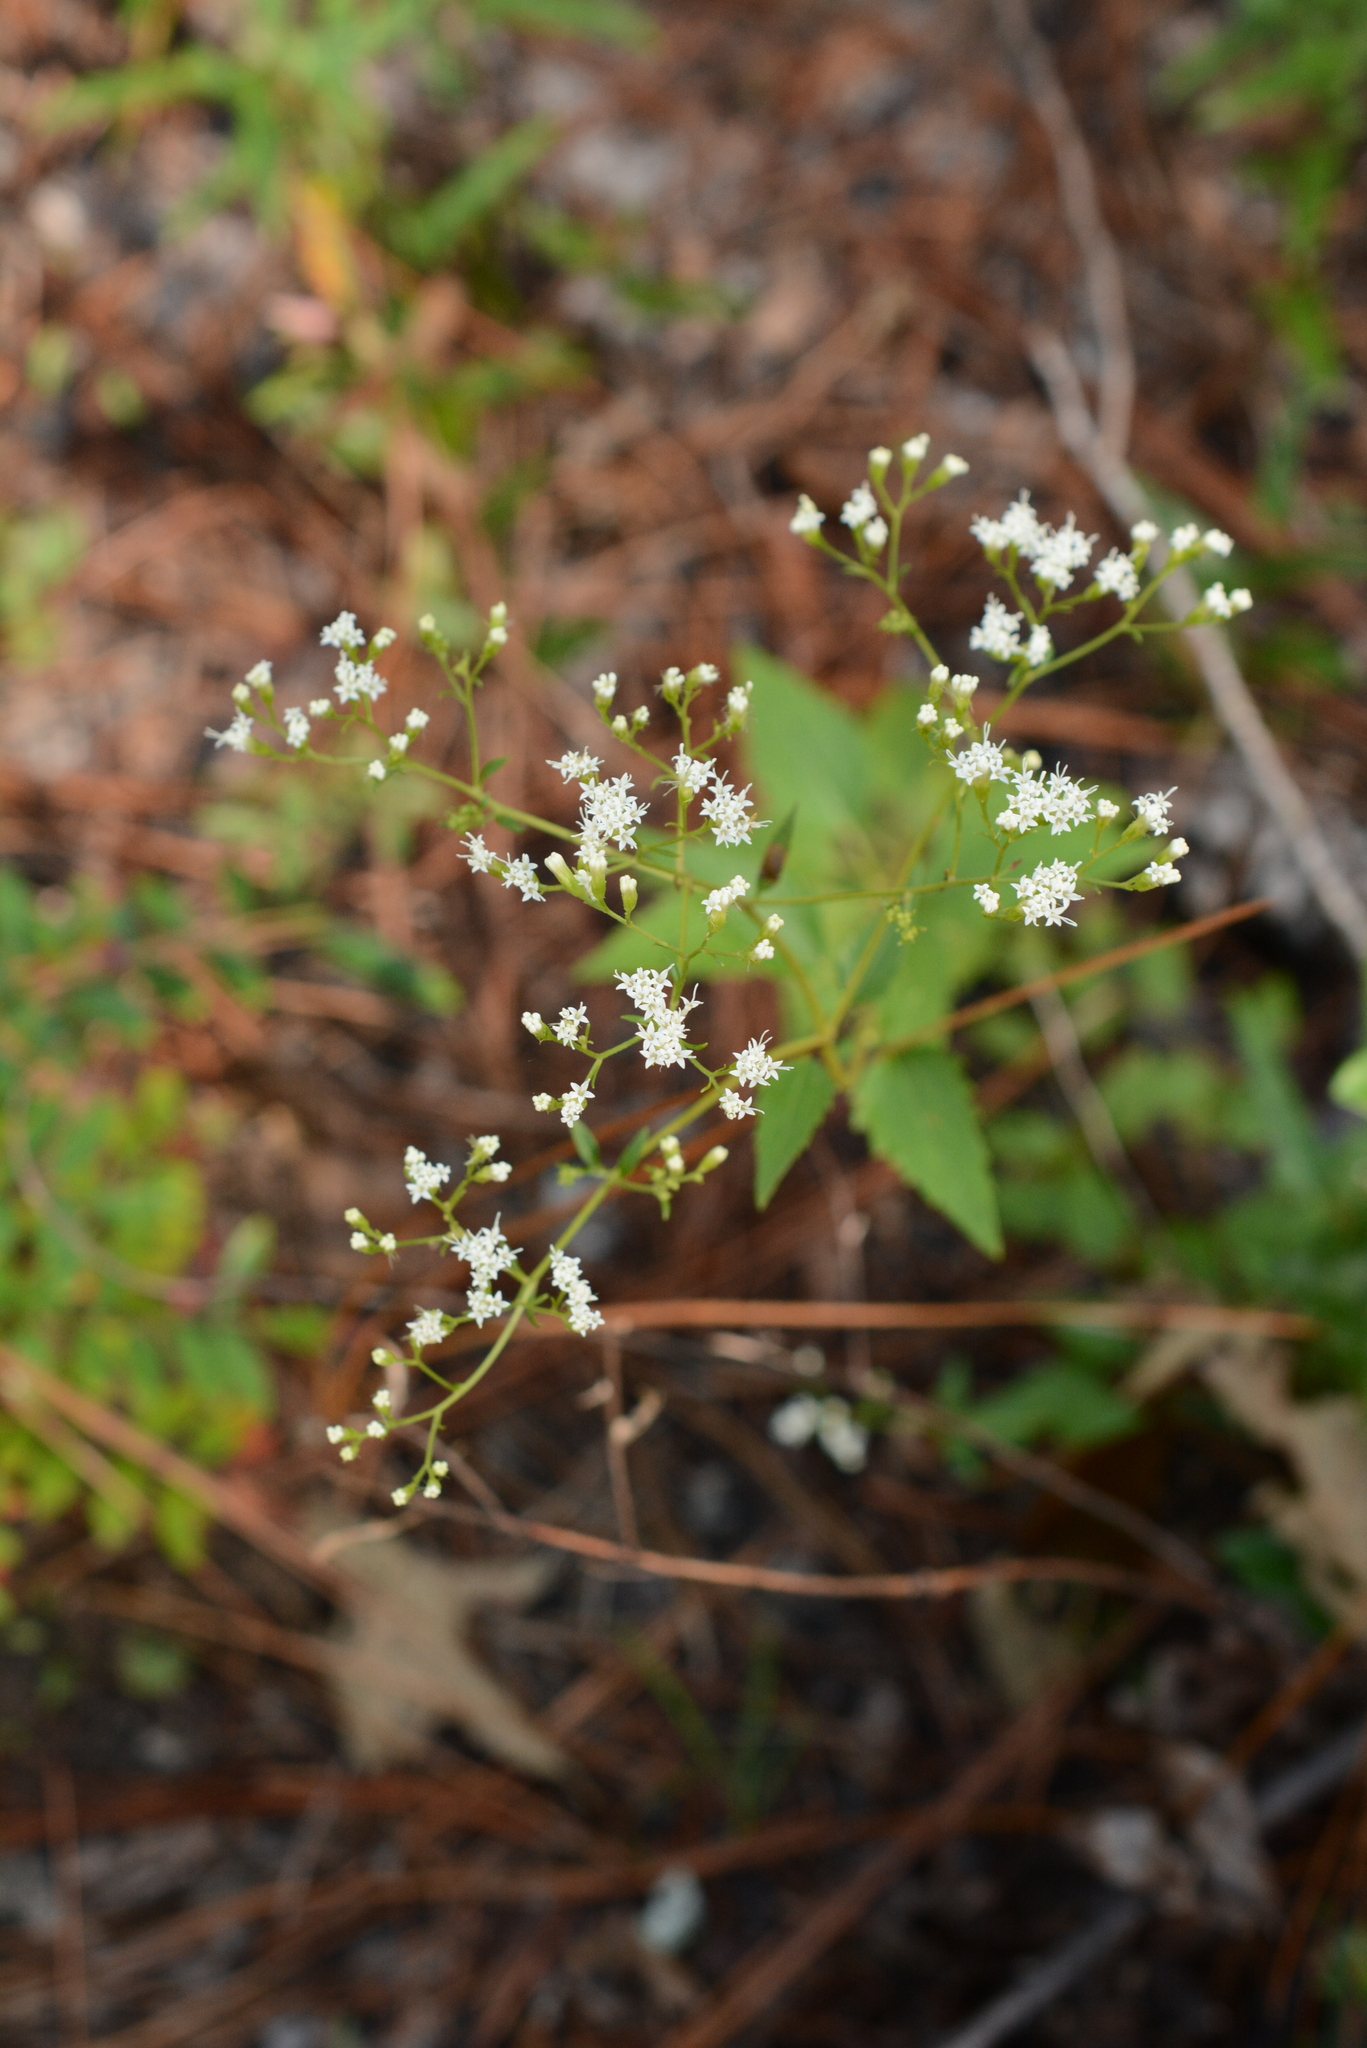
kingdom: Plantae
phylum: Tracheophyta
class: Magnoliopsida
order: Asterales
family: Asteraceae
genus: Ageratina
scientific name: Ageratina jucunda
